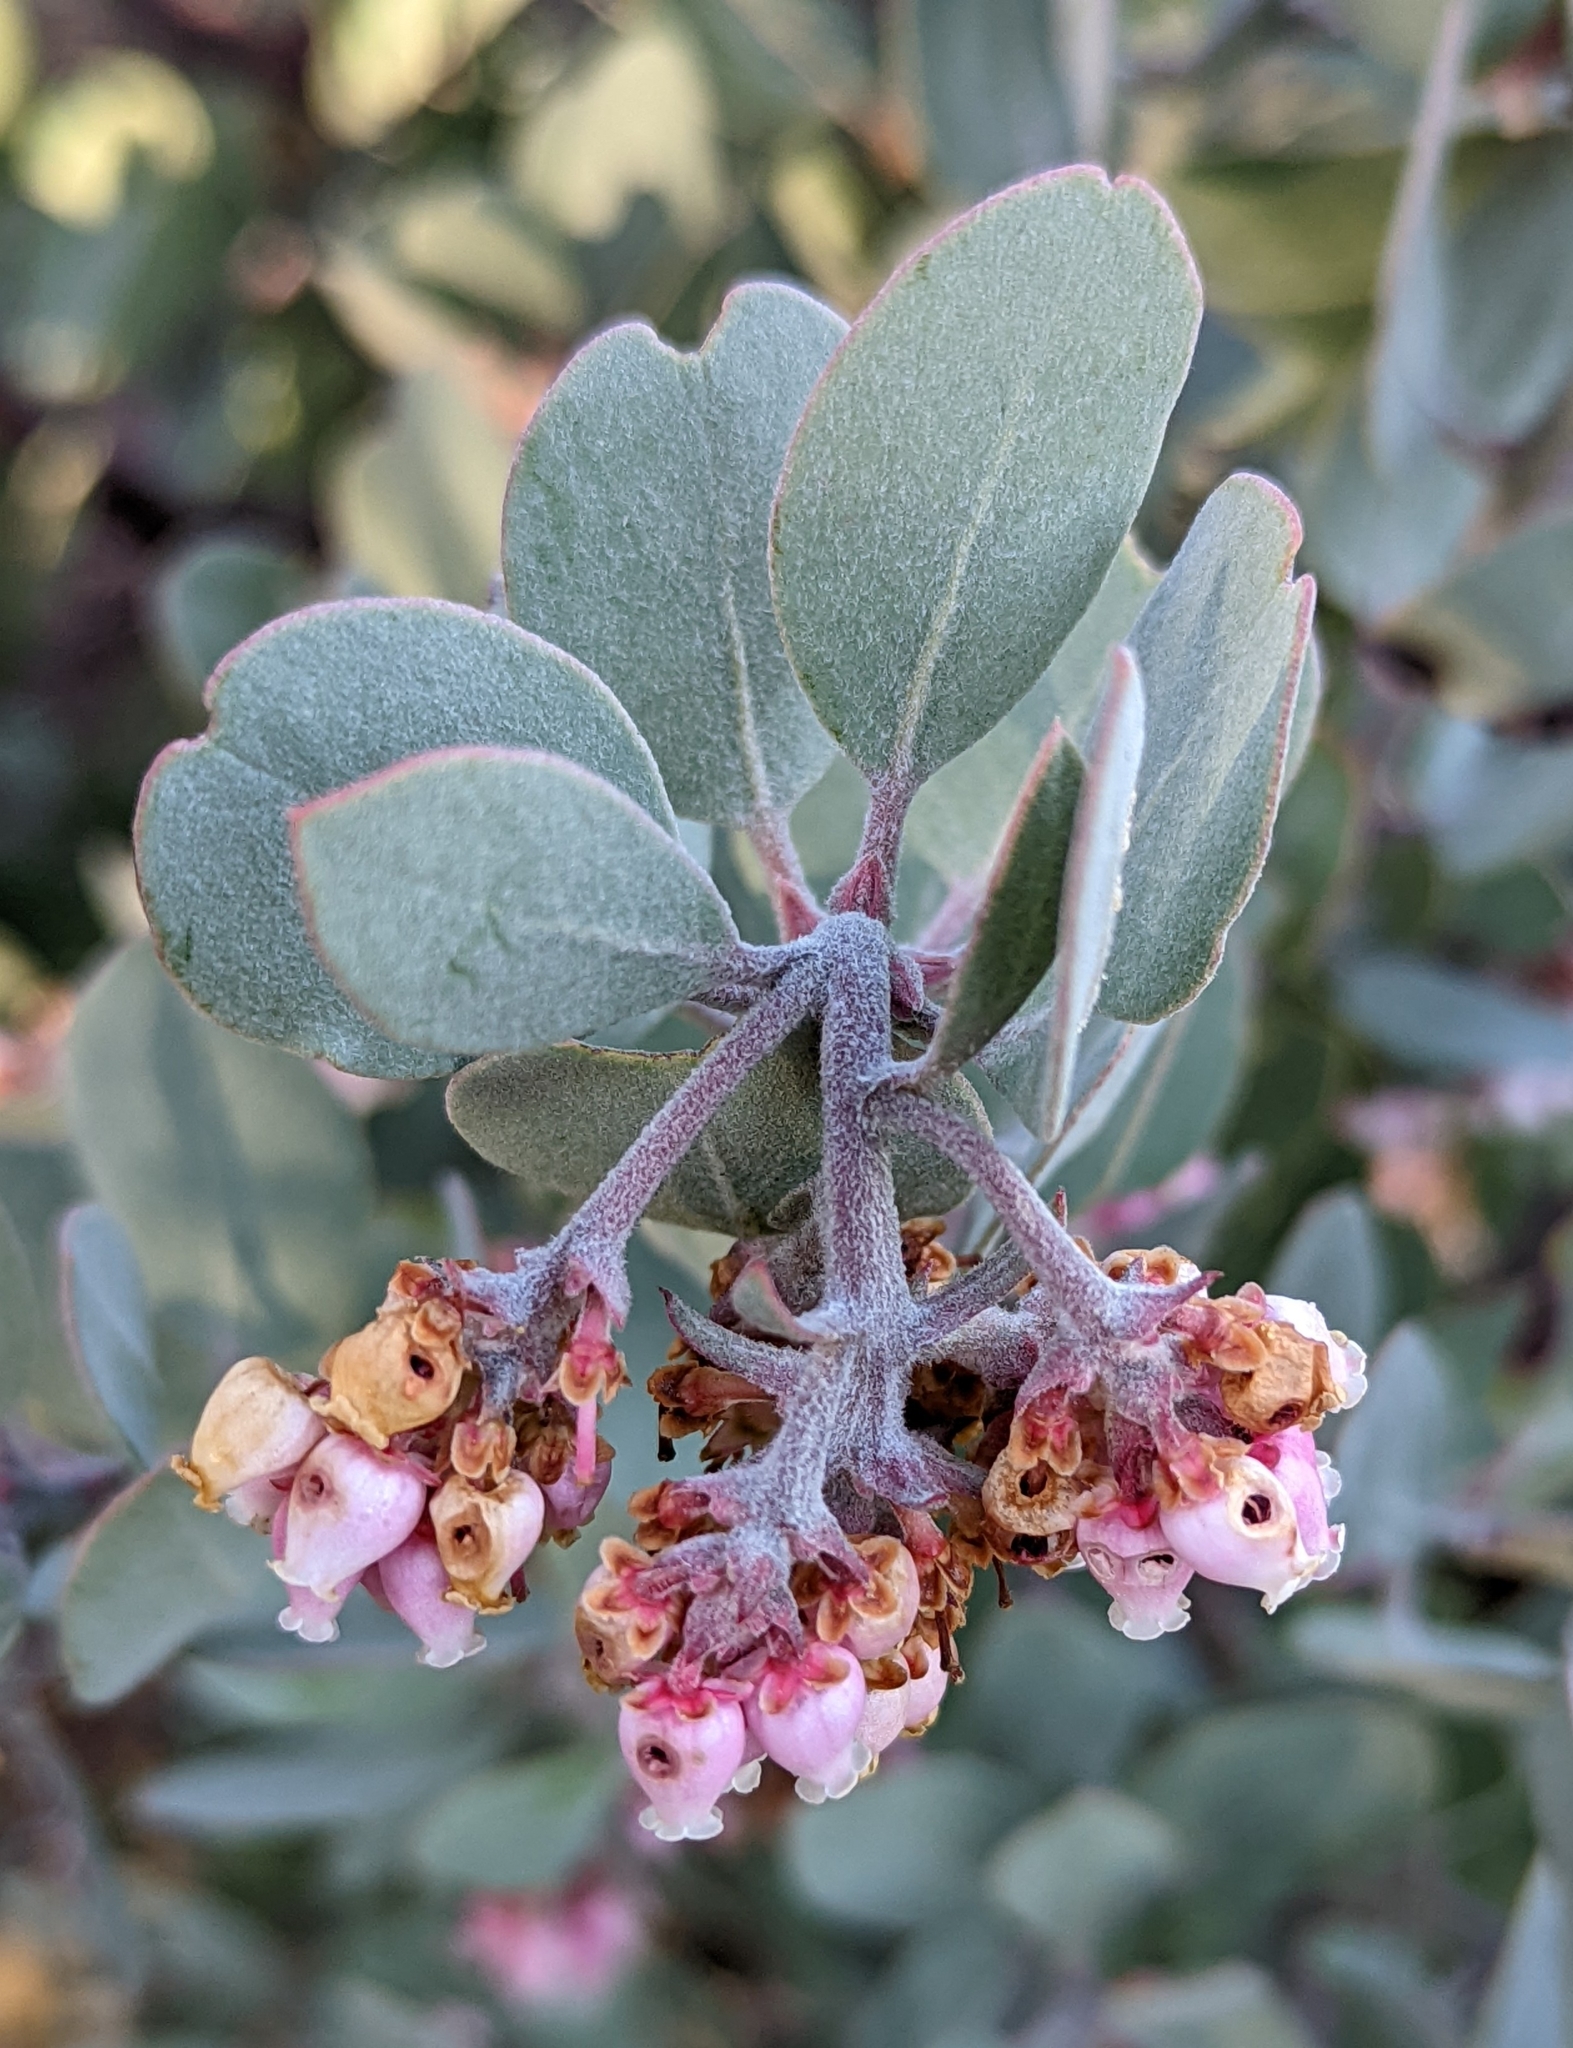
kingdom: Plantae
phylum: Tracheophyta
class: Magnoliopsida
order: Ericales
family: Ericaceae
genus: Arctostaphylos
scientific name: Arctostaphylos canescens
